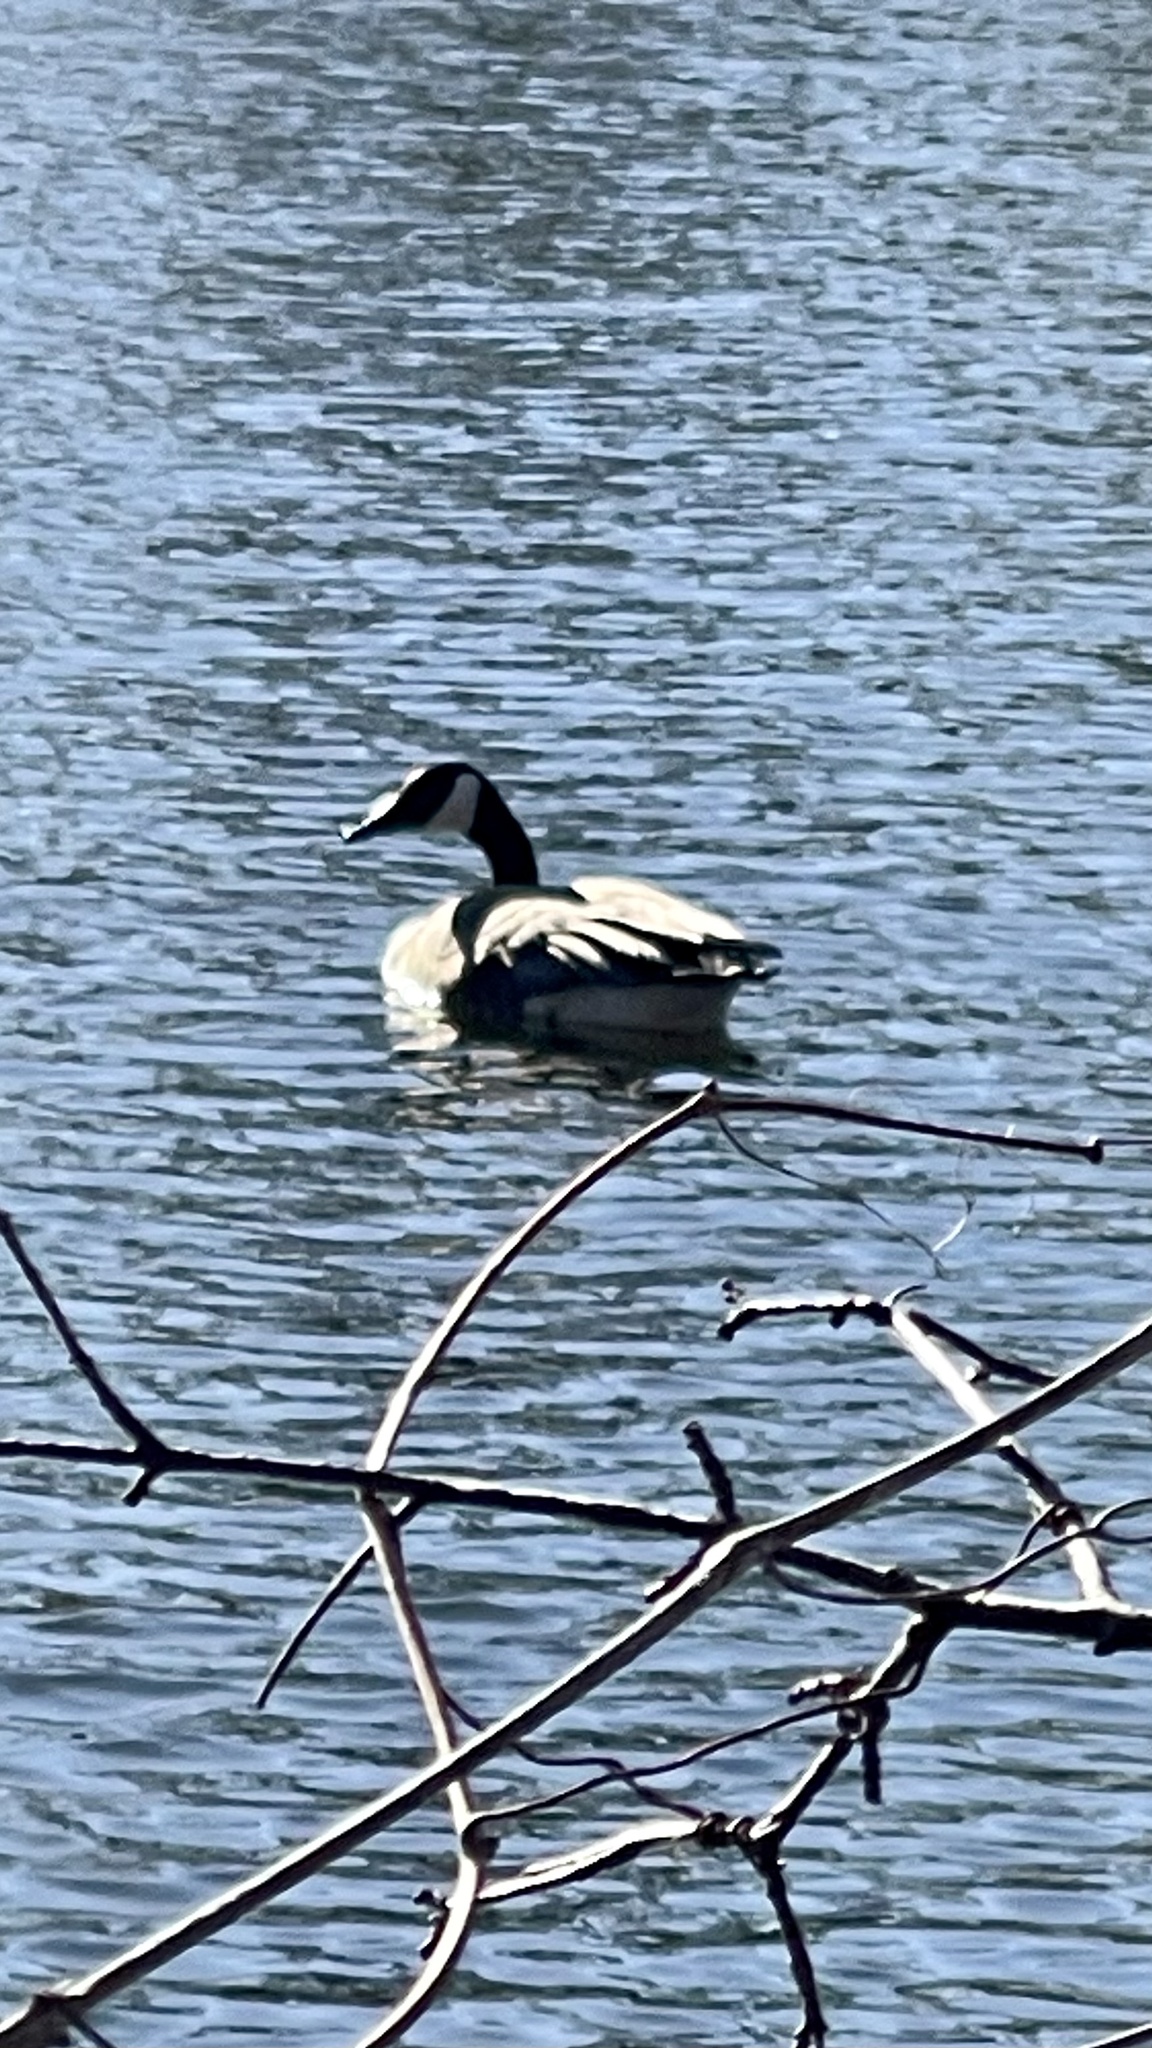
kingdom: Animalia
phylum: Chordata
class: Aves
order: Anseriformes
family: Anatidae
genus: Branta
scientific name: Branta canadensis
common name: Canada goose
